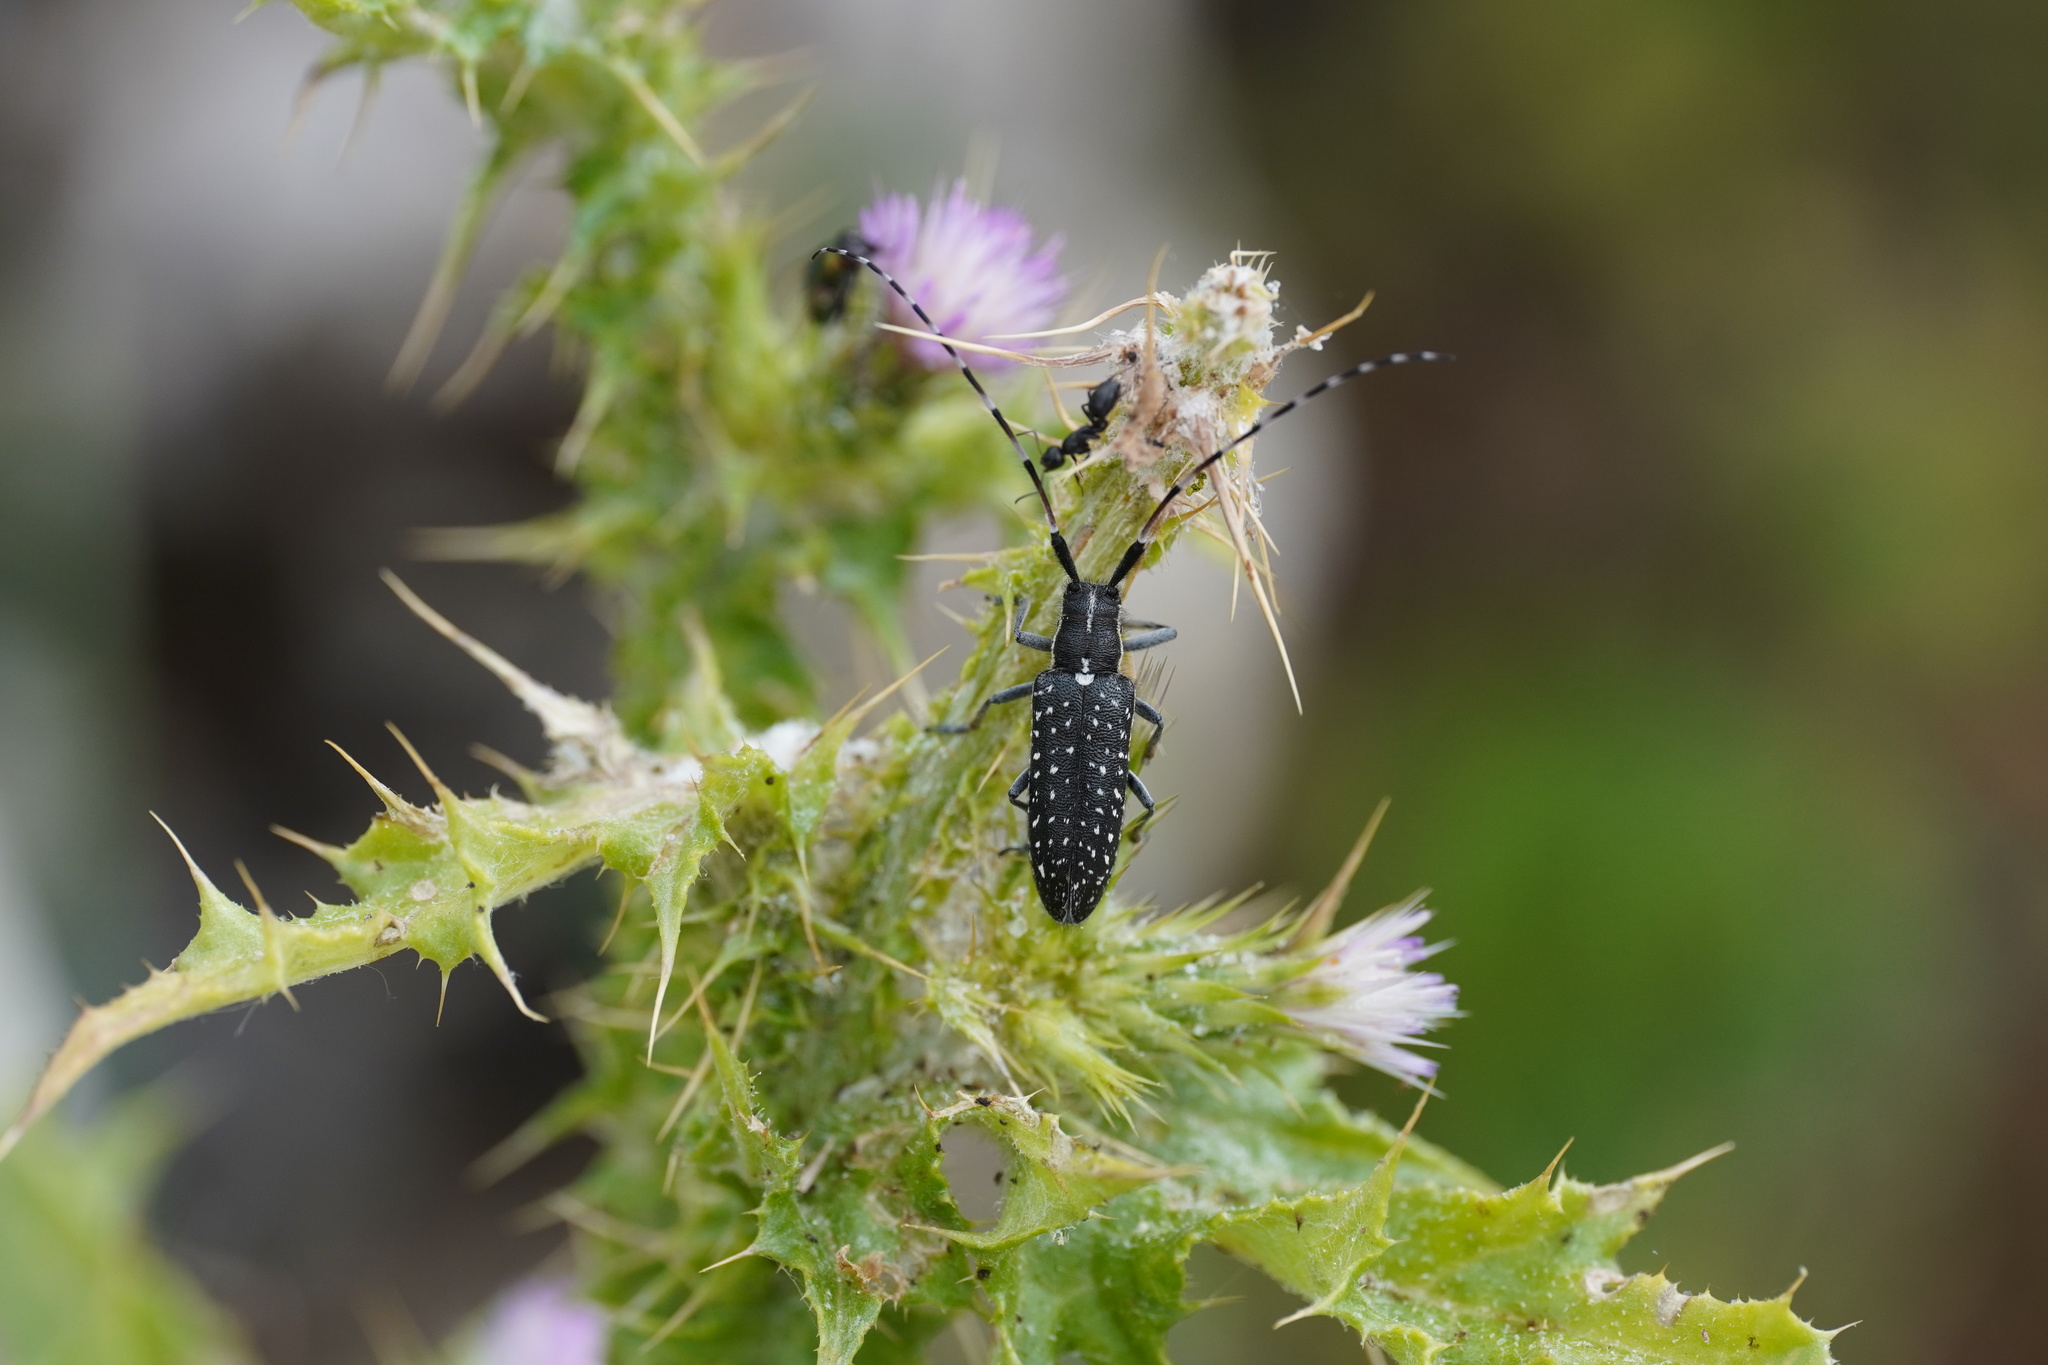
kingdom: Animalia
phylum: Arthropoda
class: Insecta
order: Coleoptera
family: Cerambycidae
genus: Agapanthia
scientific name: Agapanthia irrorata
